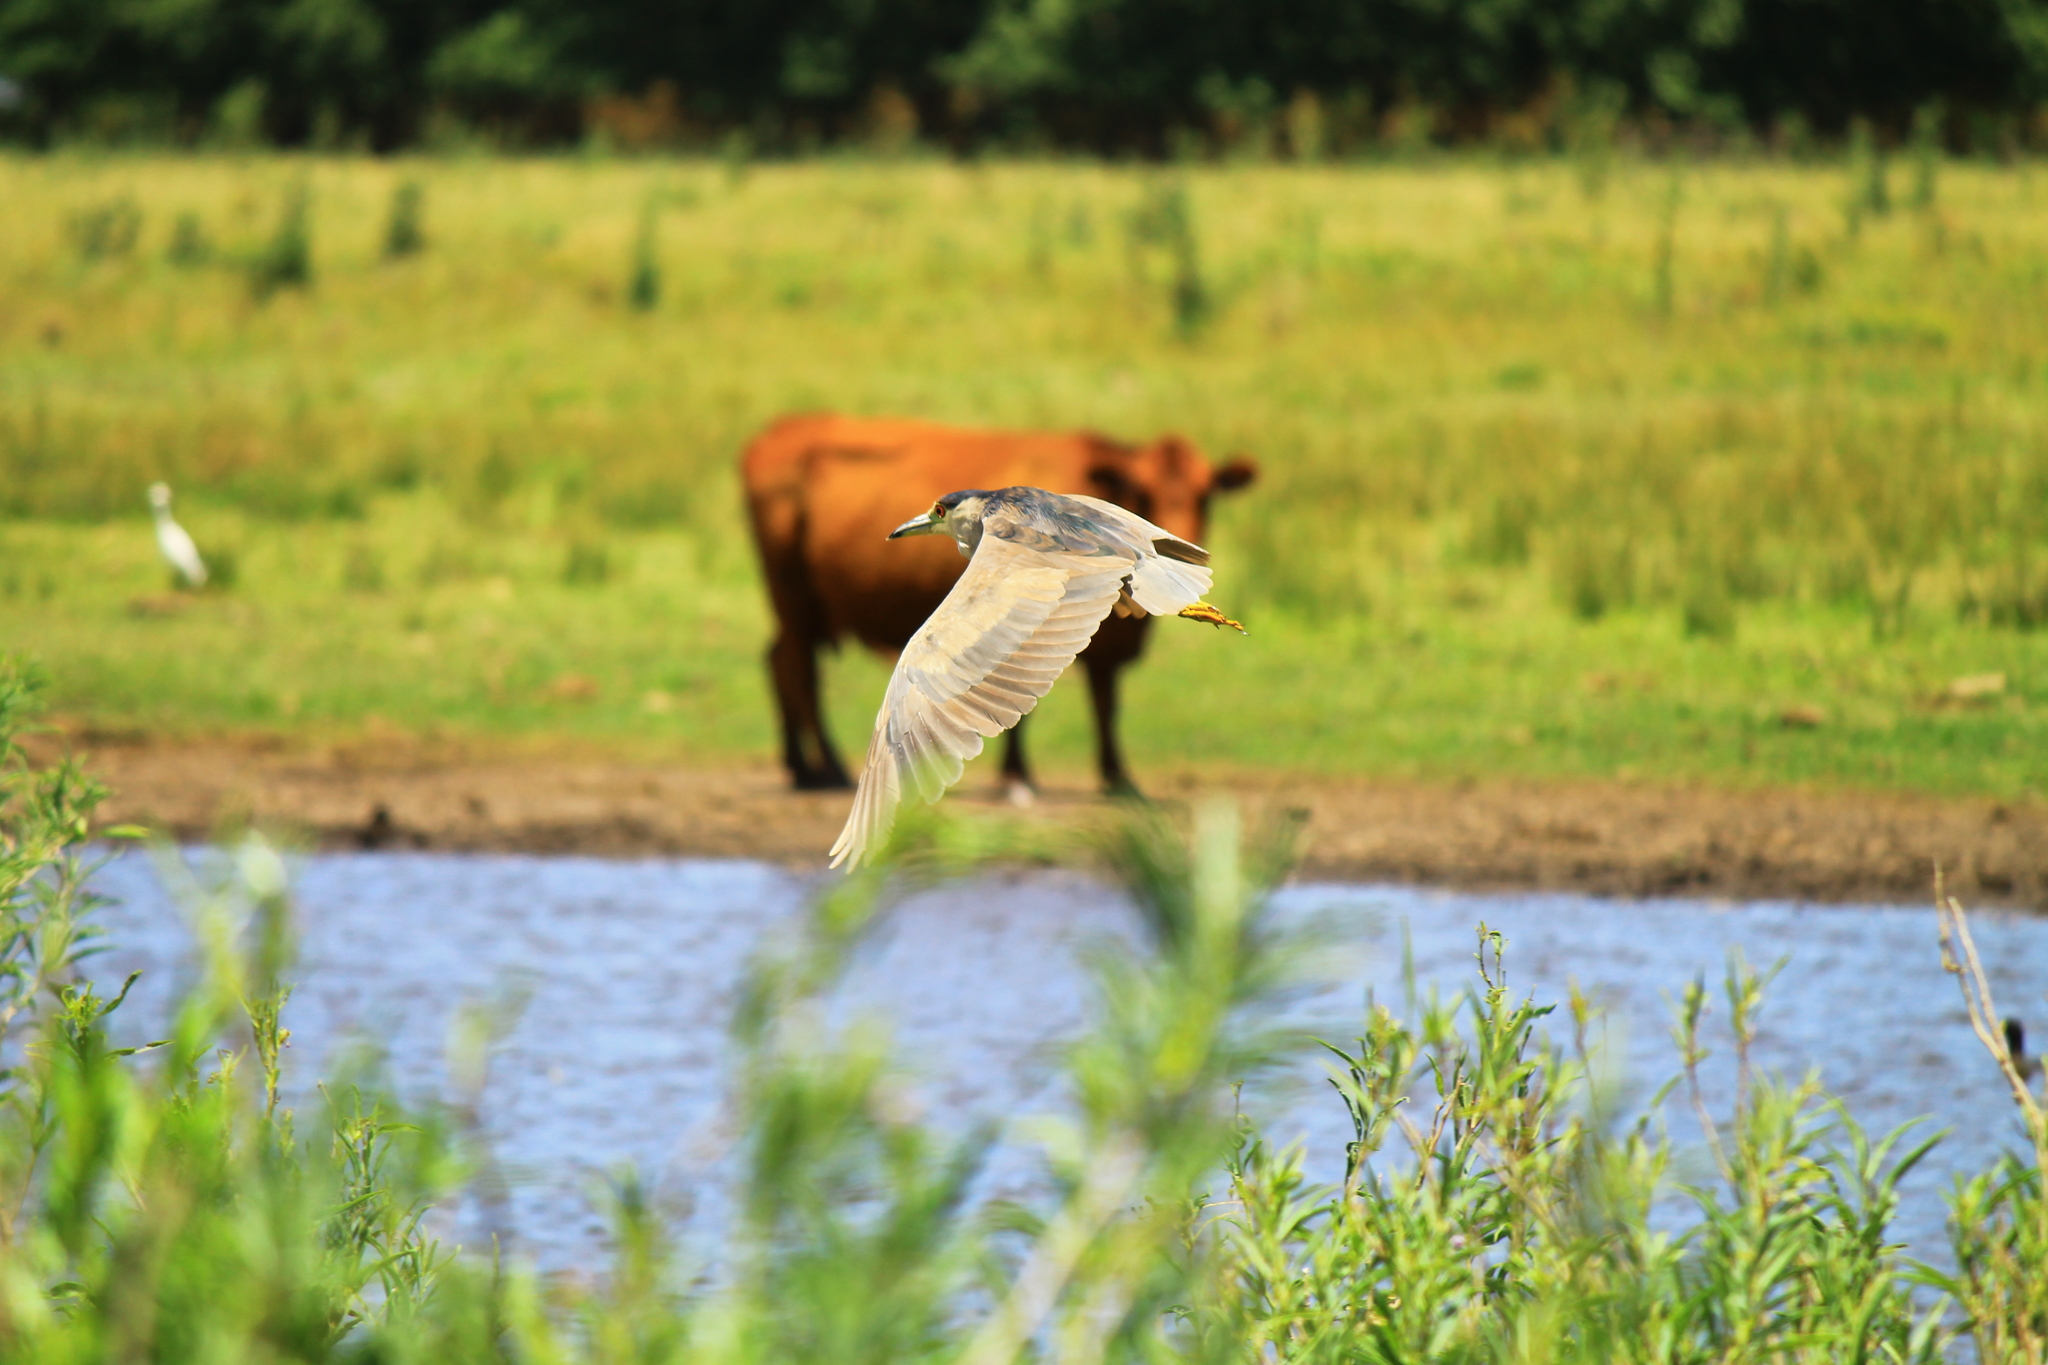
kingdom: Animalia
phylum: Chordata
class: Aves
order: Pelecaniformes
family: Ardeidae
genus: Nycticorax
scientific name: Nycticorax nycticorax
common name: Black-crowned night heron
